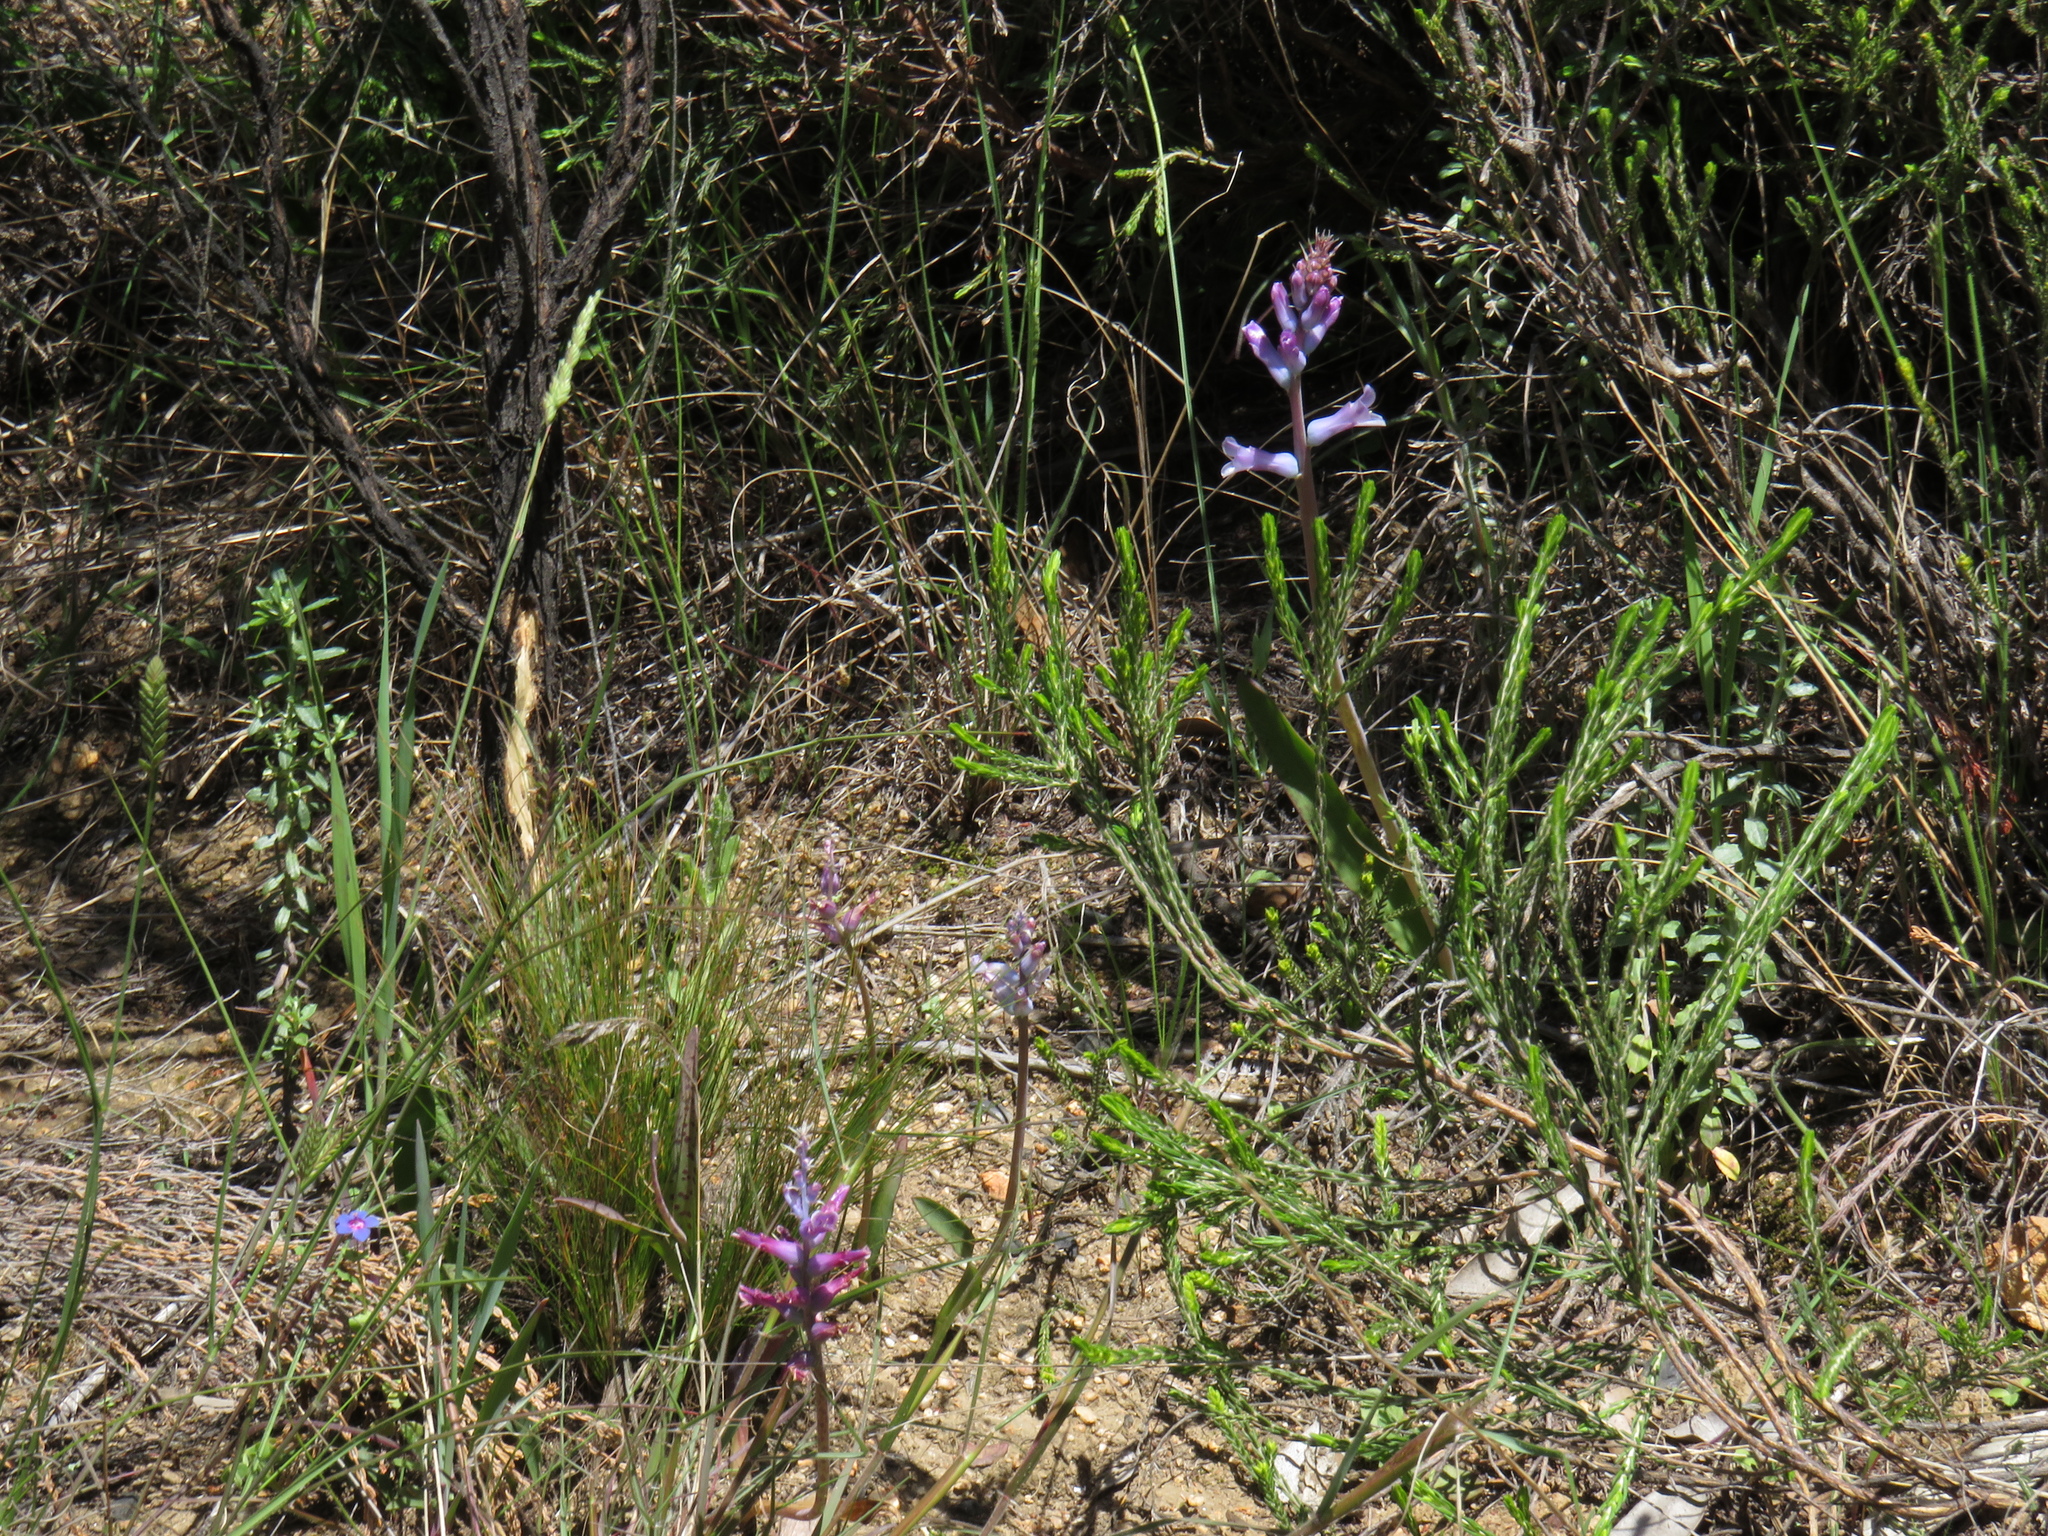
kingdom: Plantae
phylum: Tracheophyta
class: Liliopsida
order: Asparagales
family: Asparagaceae
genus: Lachenalia
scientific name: Lachenalia glaucina
